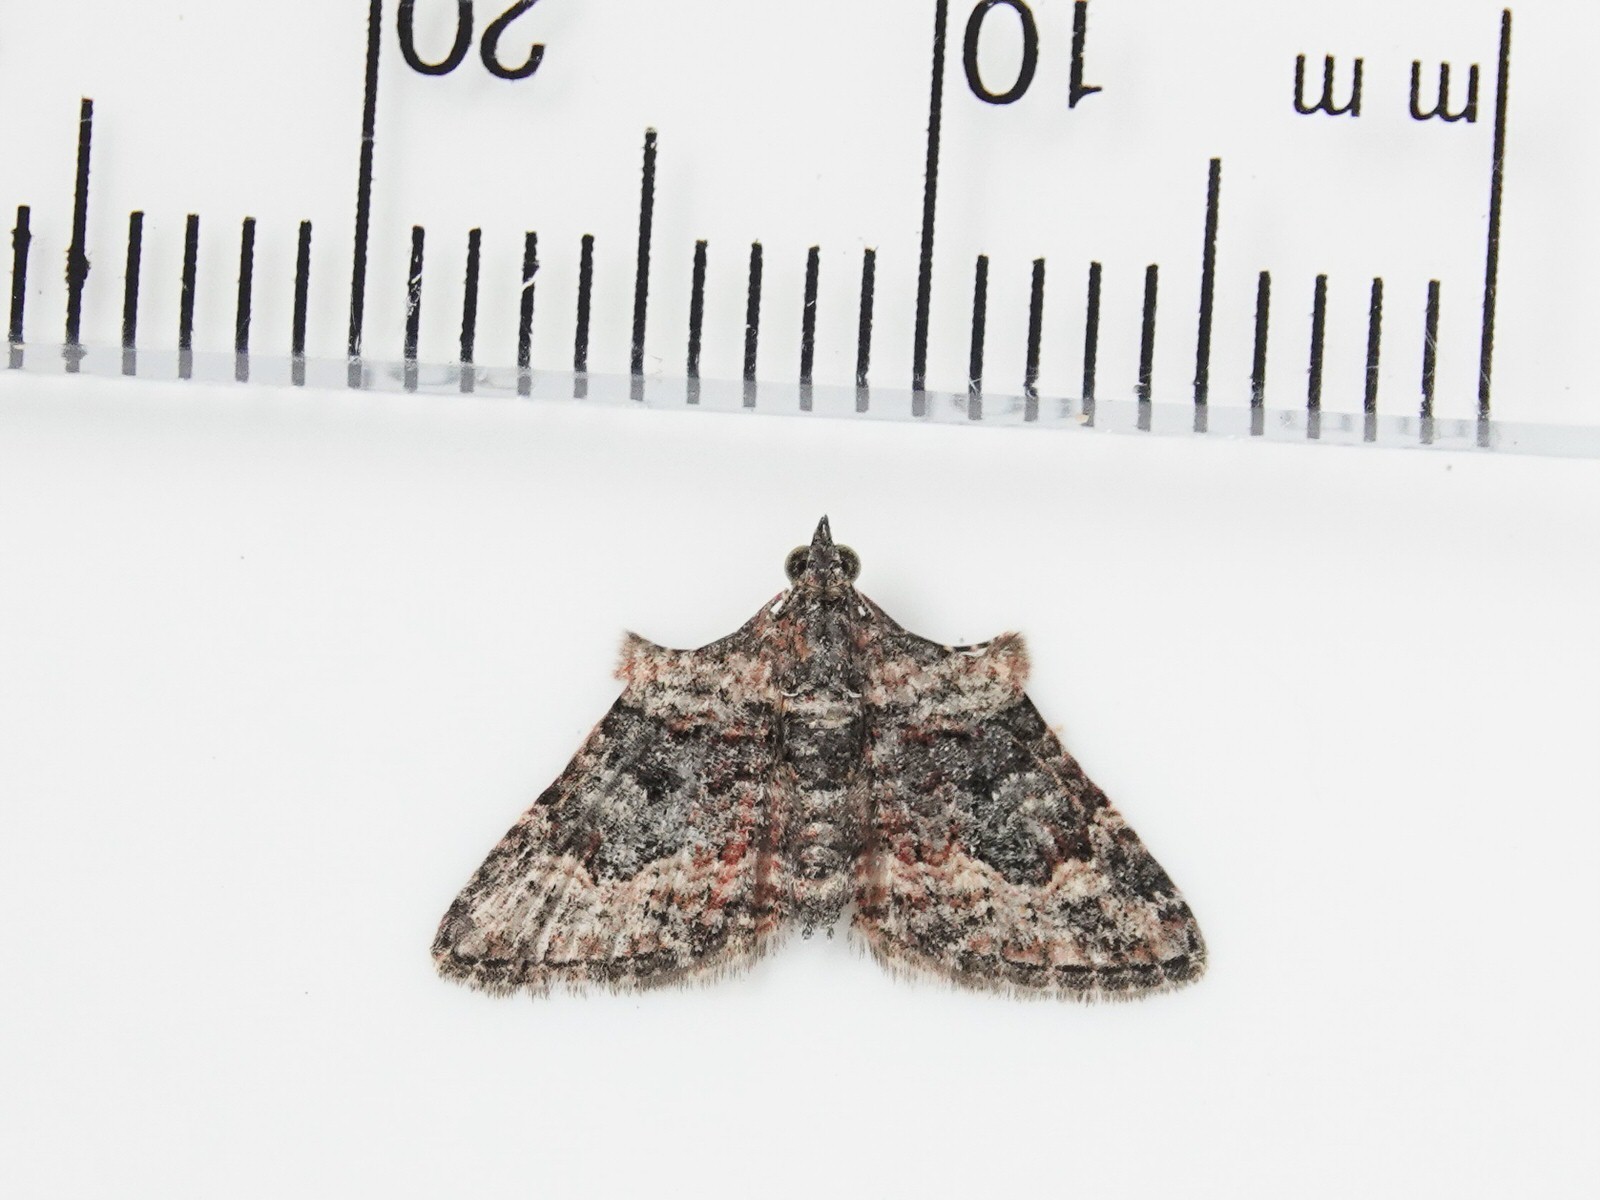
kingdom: Animalia
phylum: Arthropoda
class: Insecta
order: Lepidoptera
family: Geometridae
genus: Phrissogonus
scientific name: Phrissogonus laticostata
